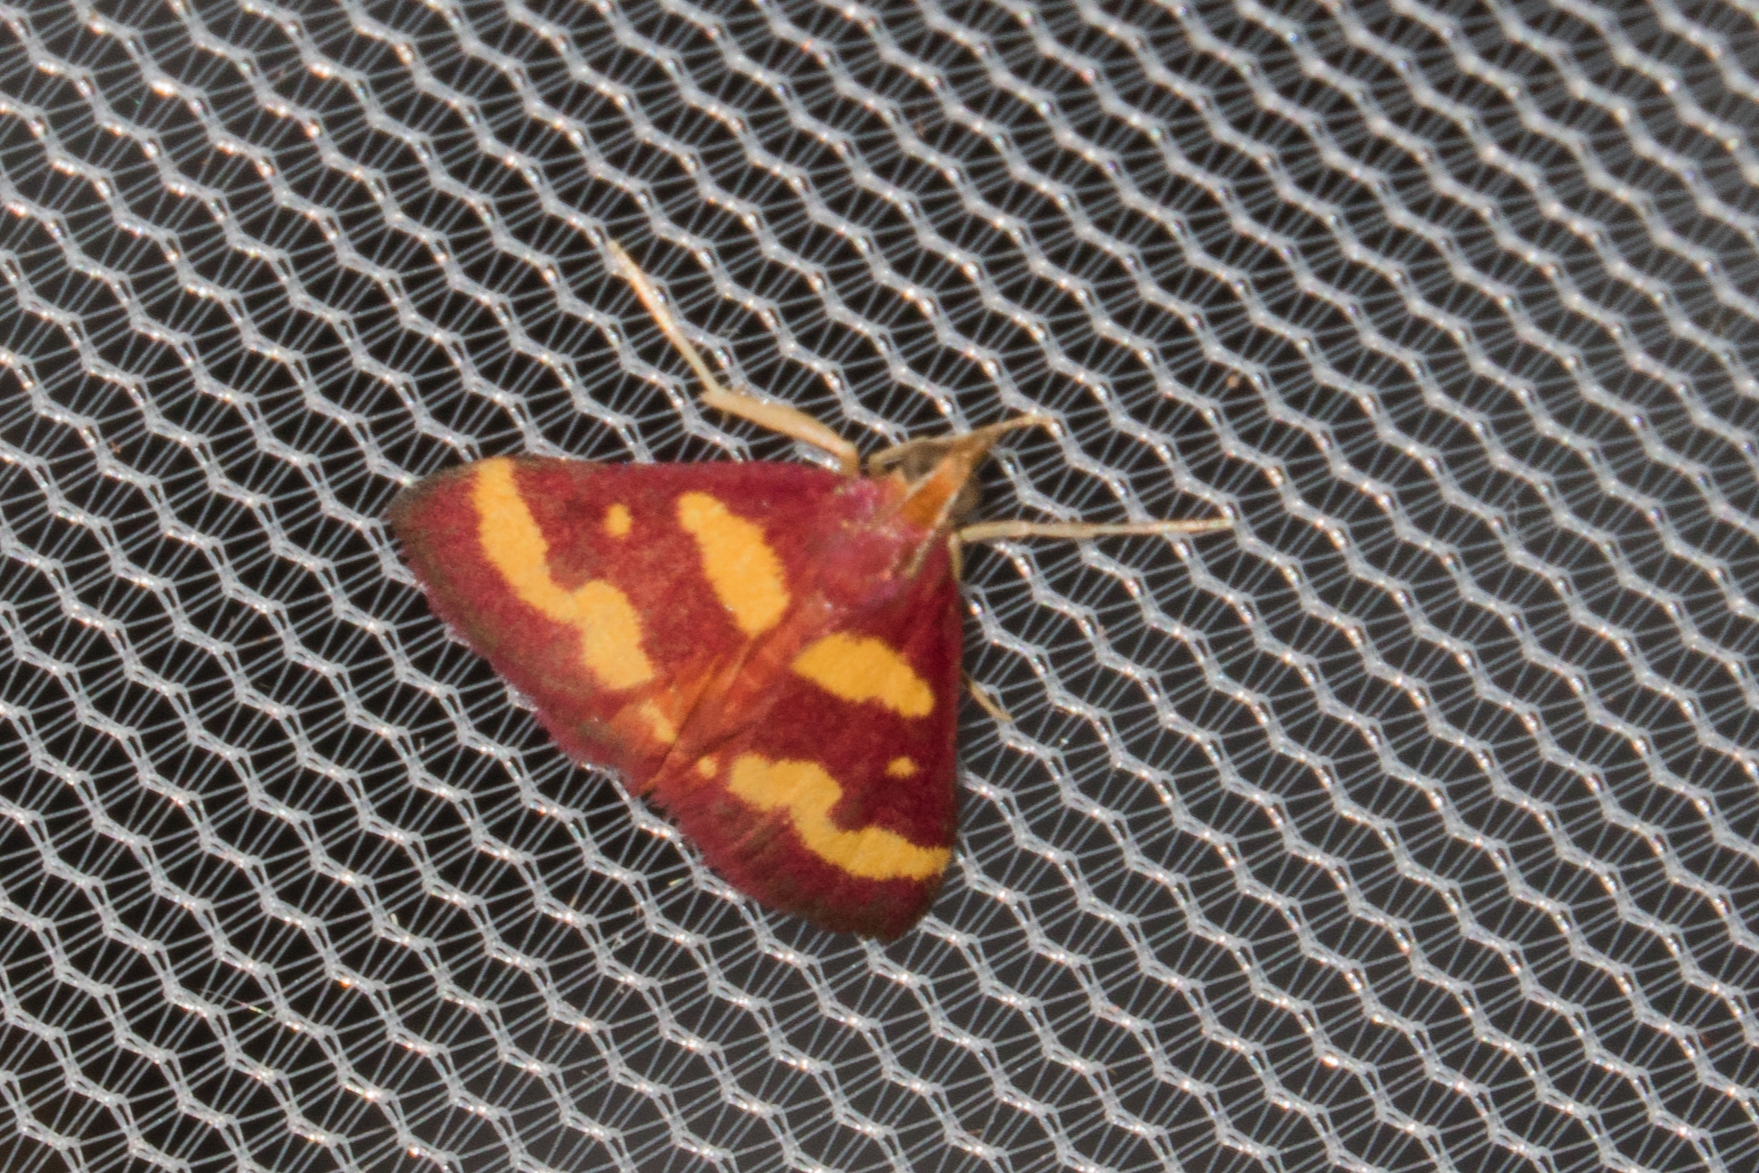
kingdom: Animalia
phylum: Arthropoda
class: Insecta
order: Lepidoptera
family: Crambidae
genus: Pyrausta
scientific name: Pyrausta tyralis
